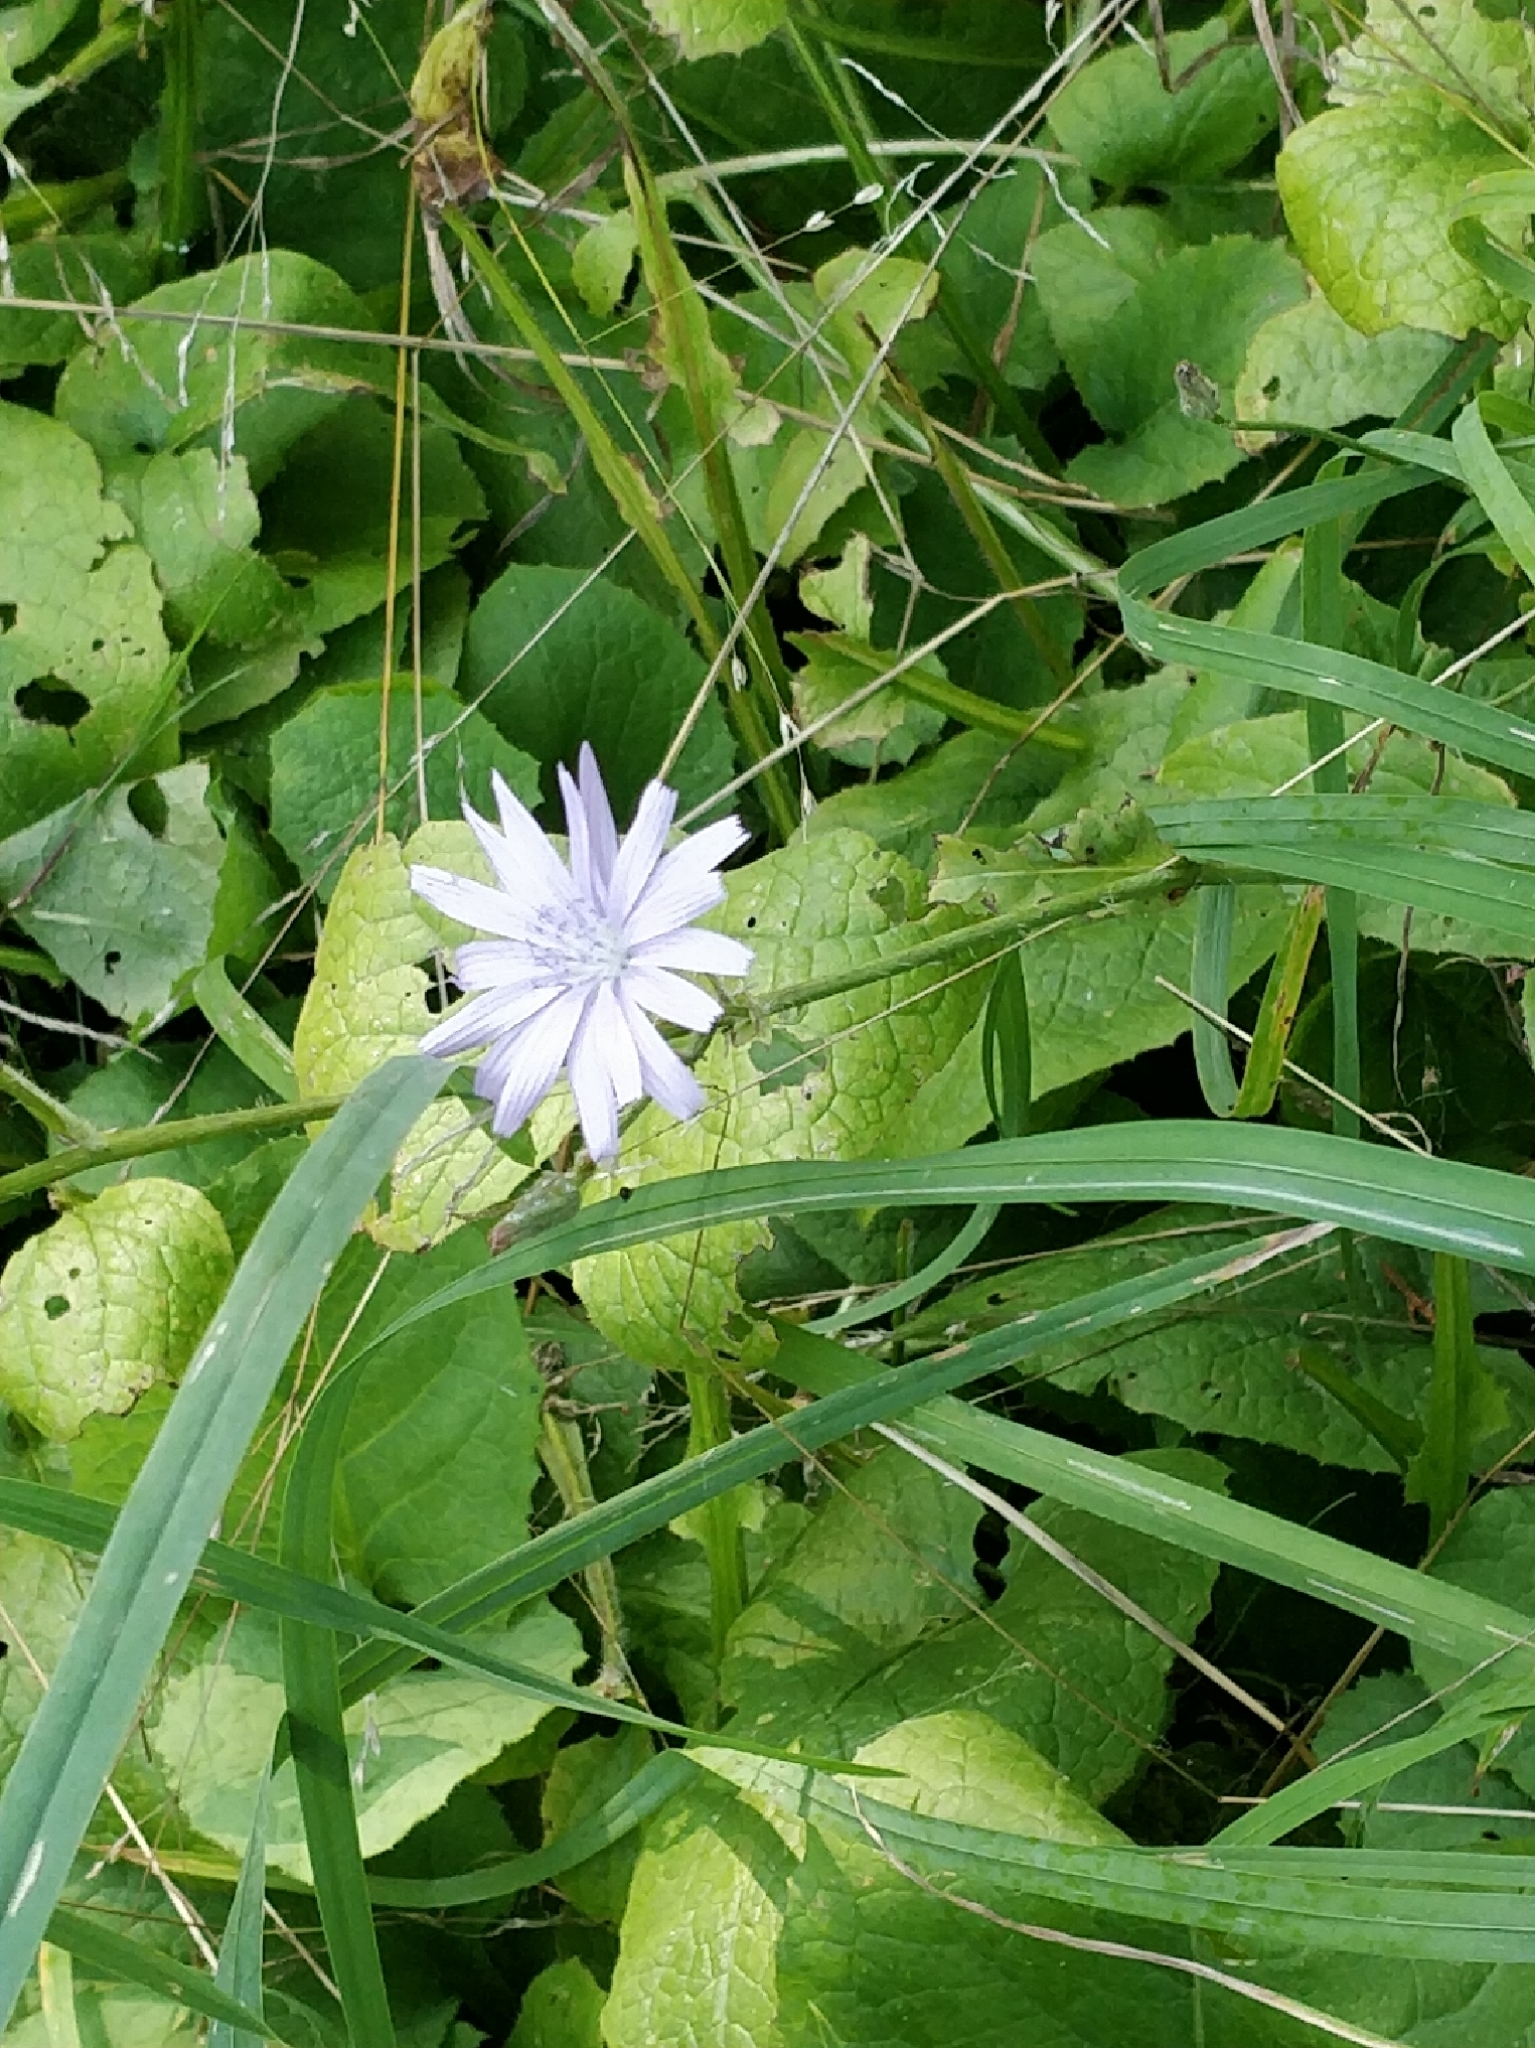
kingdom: Plantae
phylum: Tracheophyta
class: Magnoliopsida
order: Asterales
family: Asteraceae
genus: Cichorium
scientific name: Cichorium intybus
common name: Chicory
